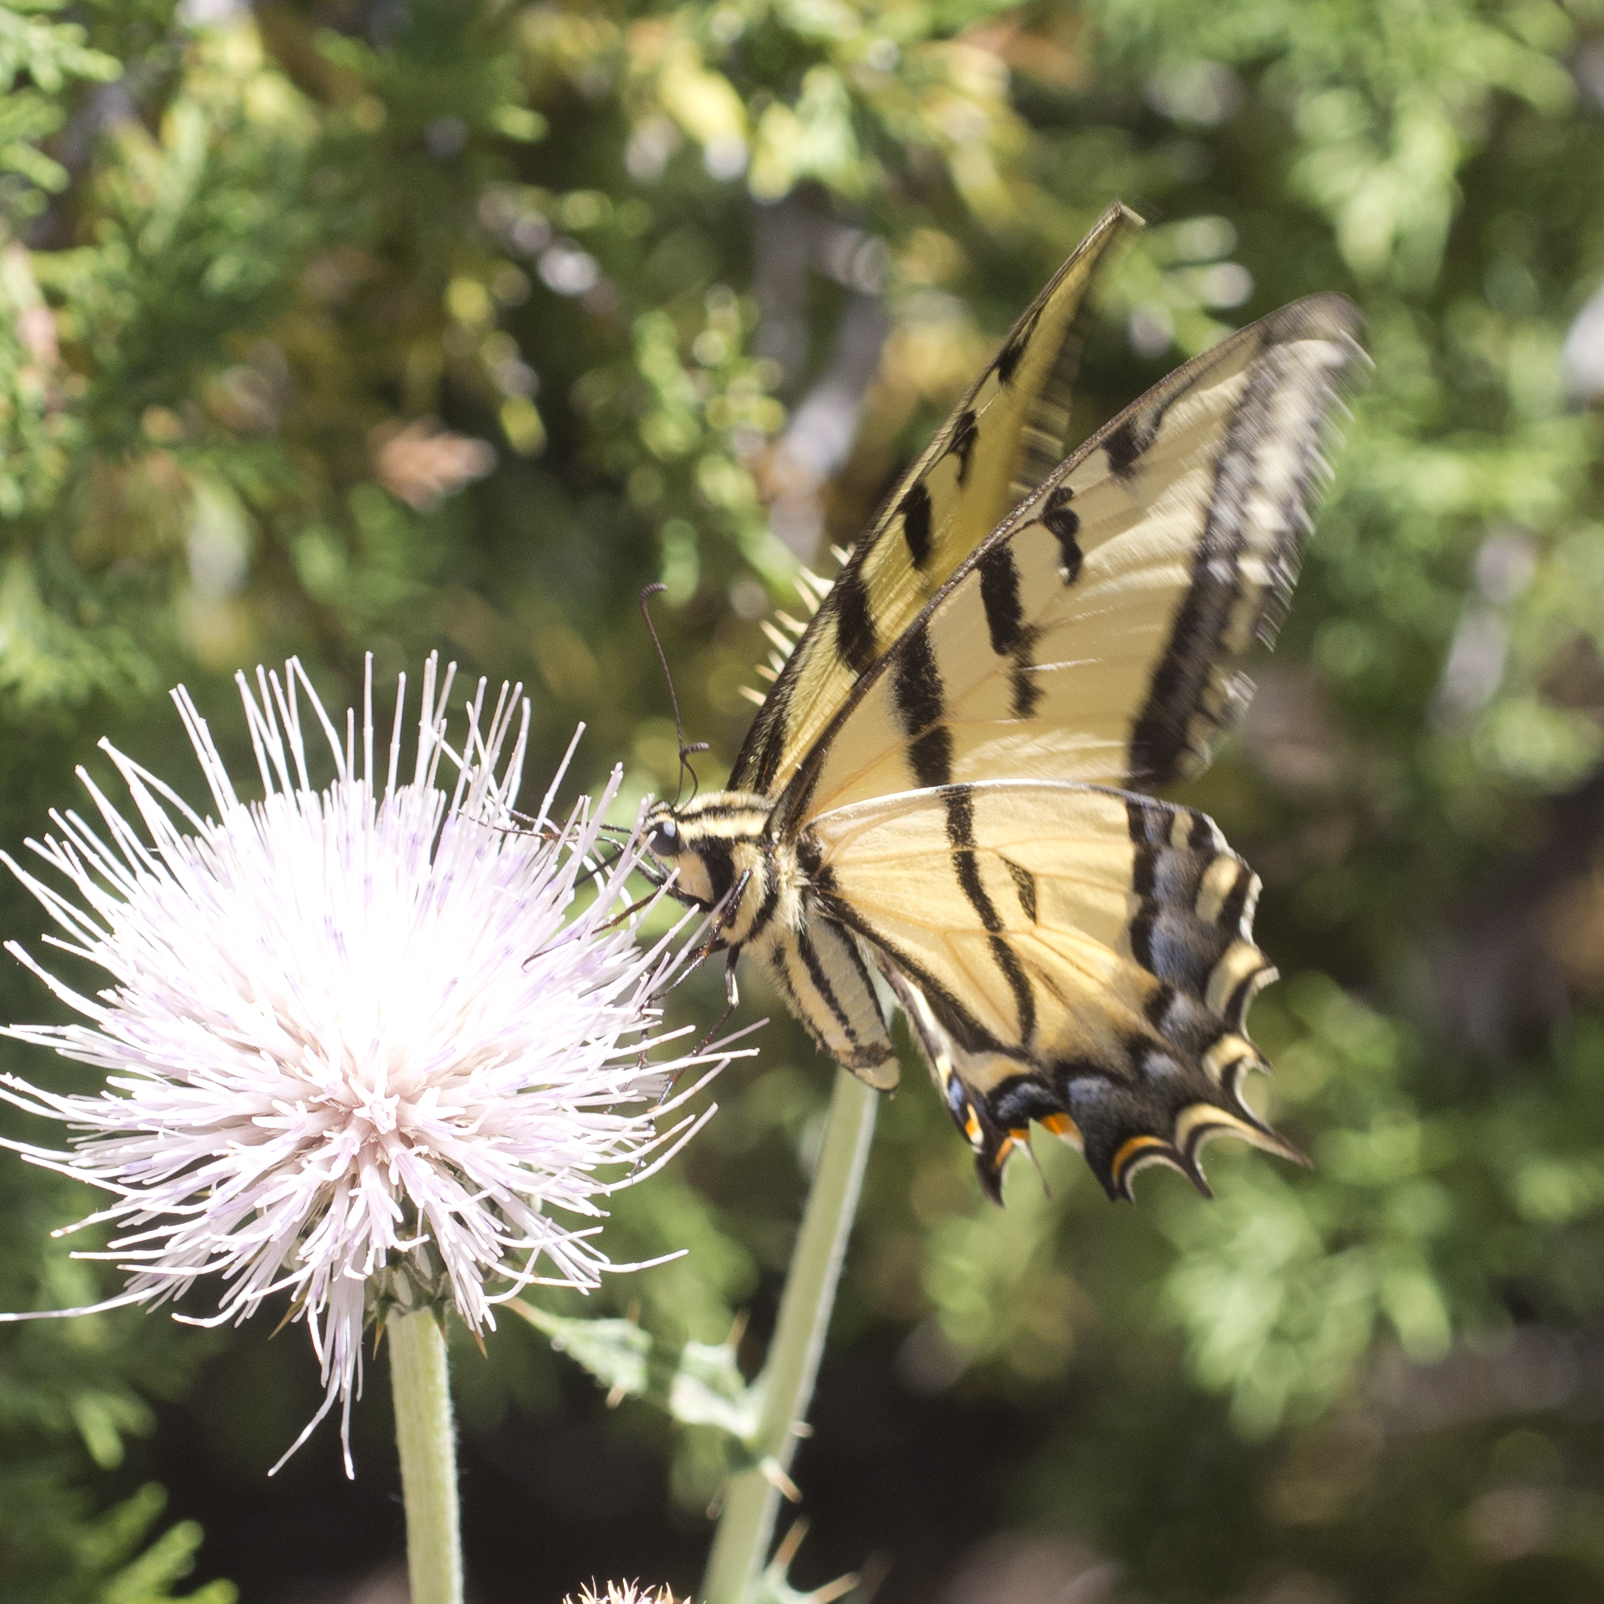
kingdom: Animalia
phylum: Arthropoda
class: Insecta
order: Lepidoptera
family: Papilionidae
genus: Papilio
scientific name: Papilio multicaudata
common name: Two-tailed tiger swallowtail
